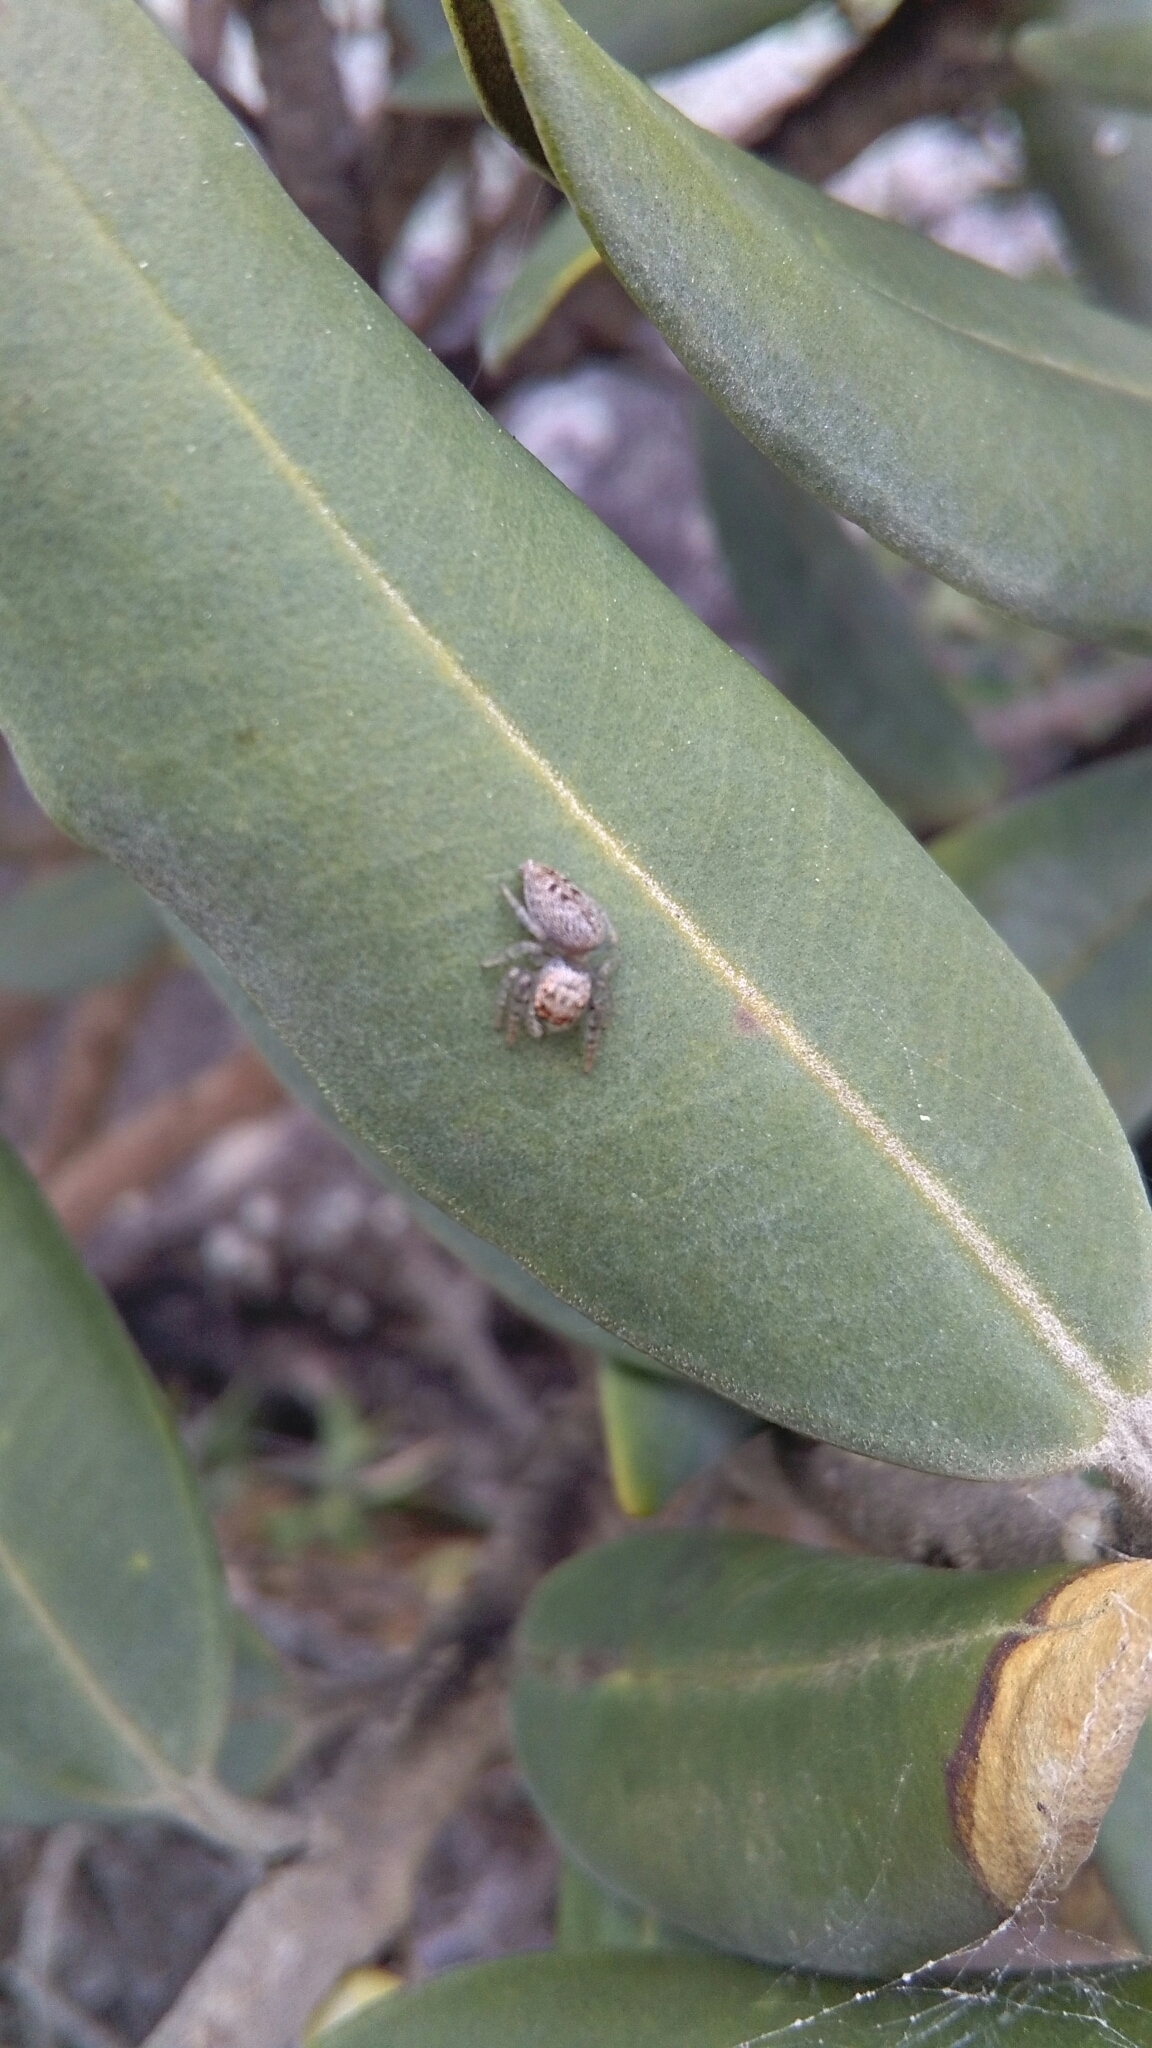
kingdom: Animalia
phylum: Arthropoda
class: Arachnida
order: Araneae
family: Salticidae
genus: Opisthoncus
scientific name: Opisthoncus polyphemus
